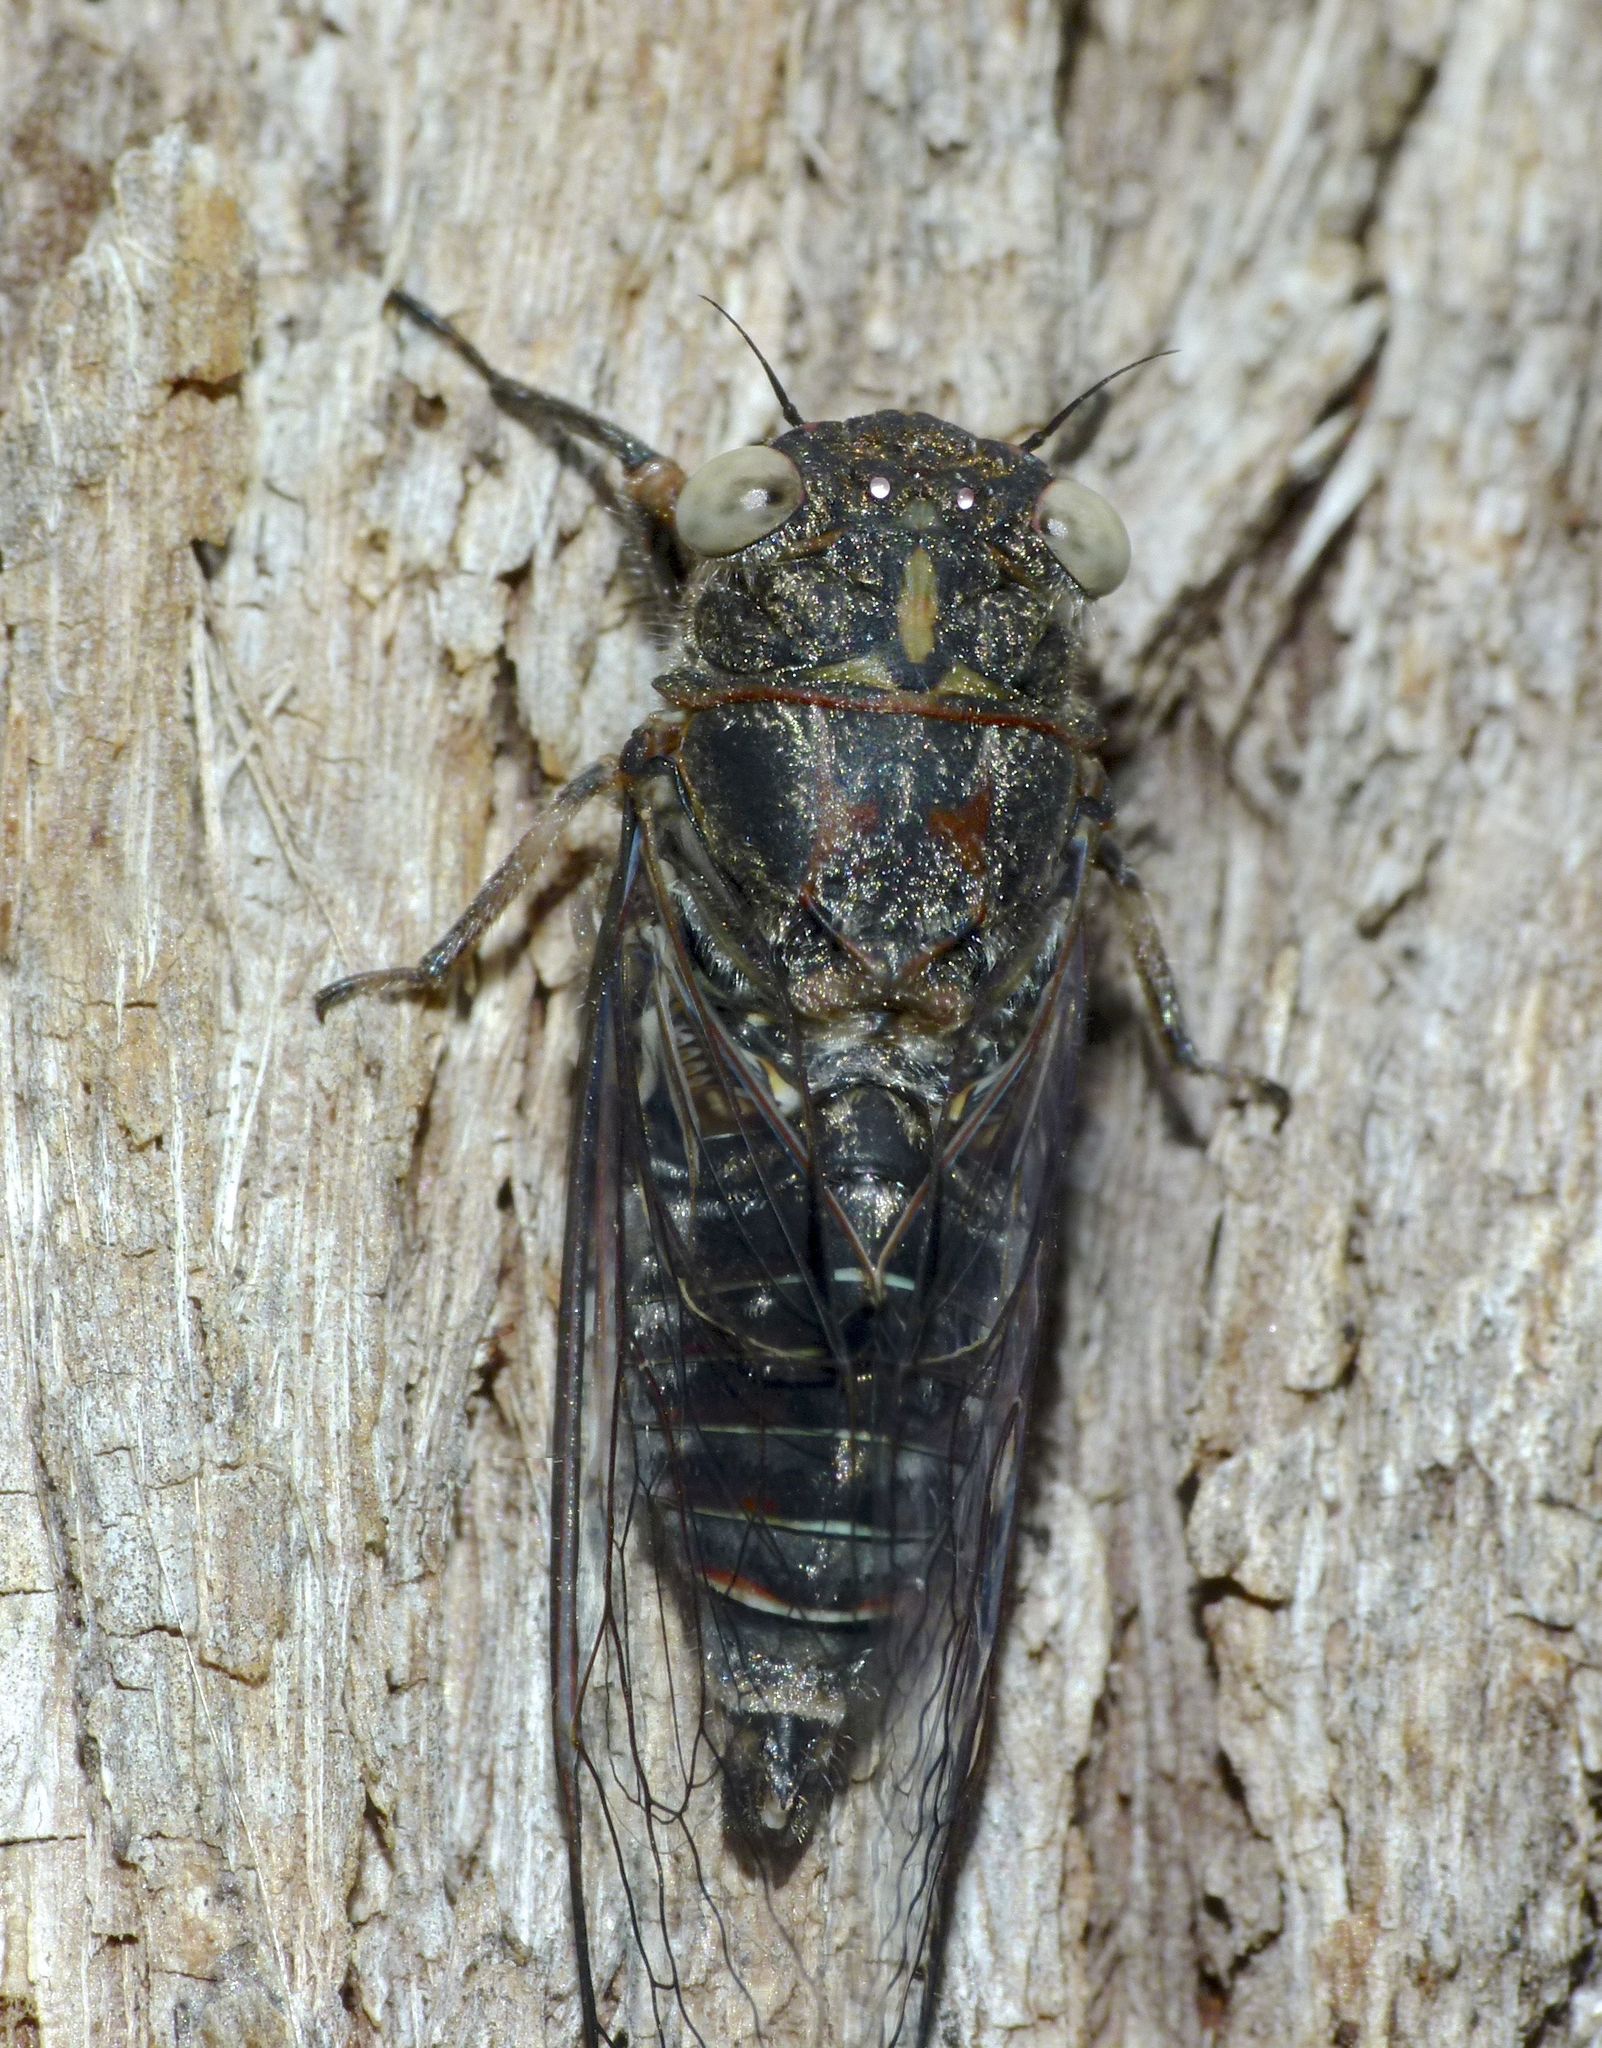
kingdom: Animalia
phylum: Arthropoda
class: Insecta
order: Hemiptera
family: Cicadidae
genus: Atrapsalta
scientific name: Atrapsalta corticina
